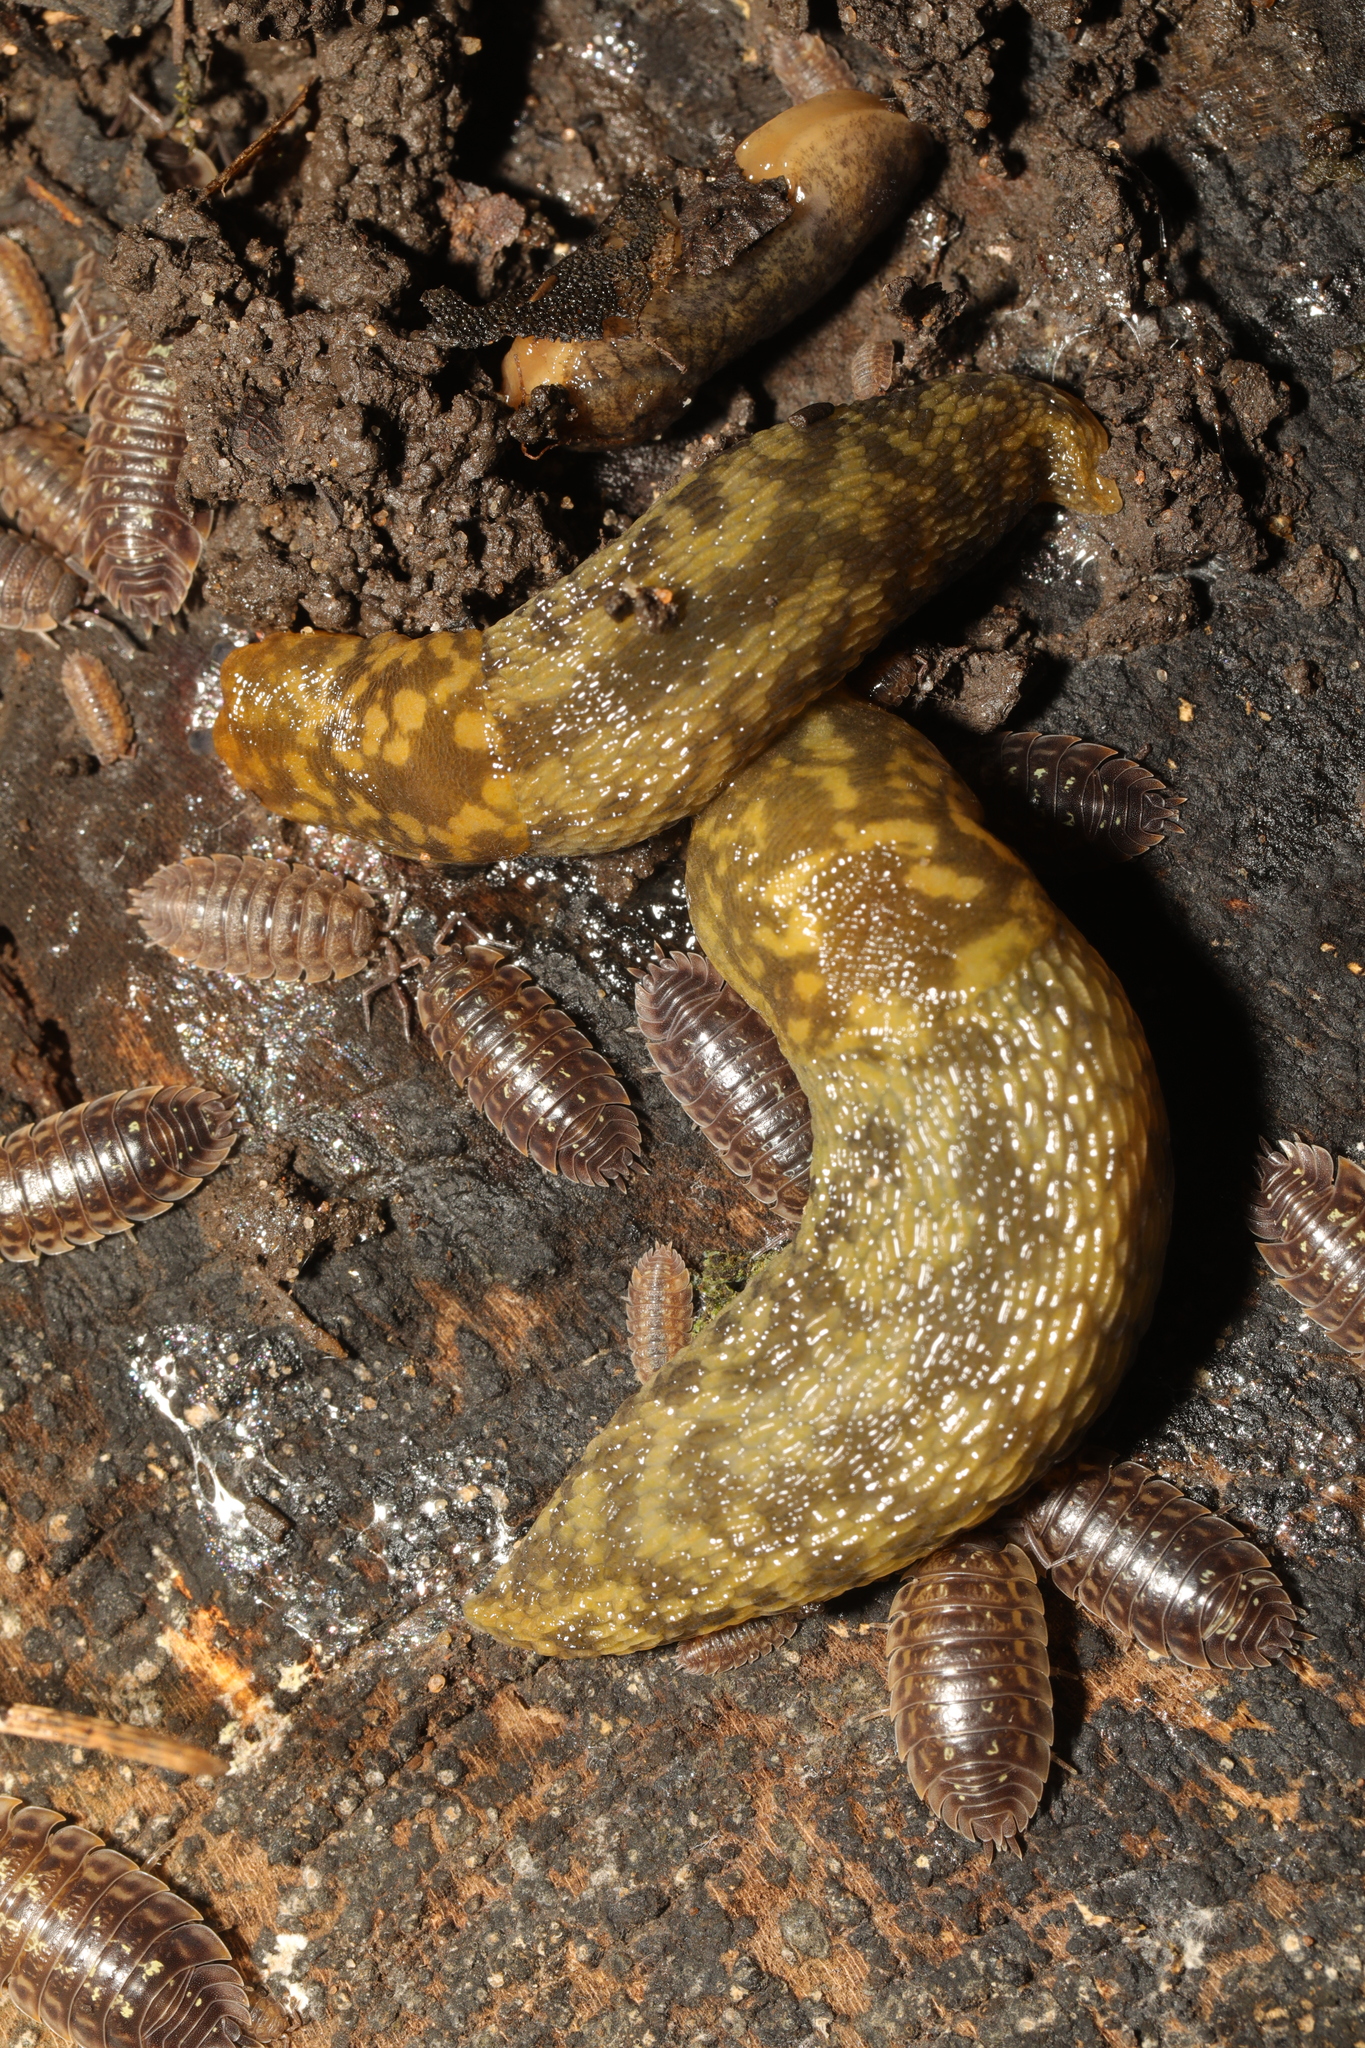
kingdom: Animalia
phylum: Mollusca
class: Gastropoda
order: Stylommatophora
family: Limacidae
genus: Limacus
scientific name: Limacus maculatus
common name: Irish yellow slug
